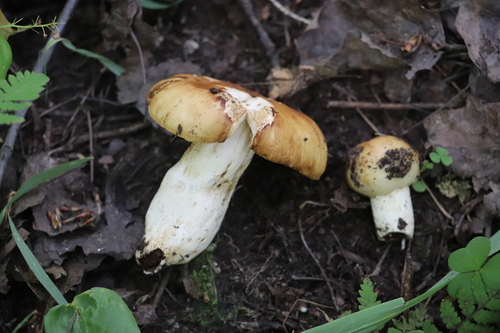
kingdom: Fungi
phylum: Basidiomycota
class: Agaricomycetes
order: Russulales
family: Russulaceae
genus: Russula
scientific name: Russula foetens
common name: Foetid russula
